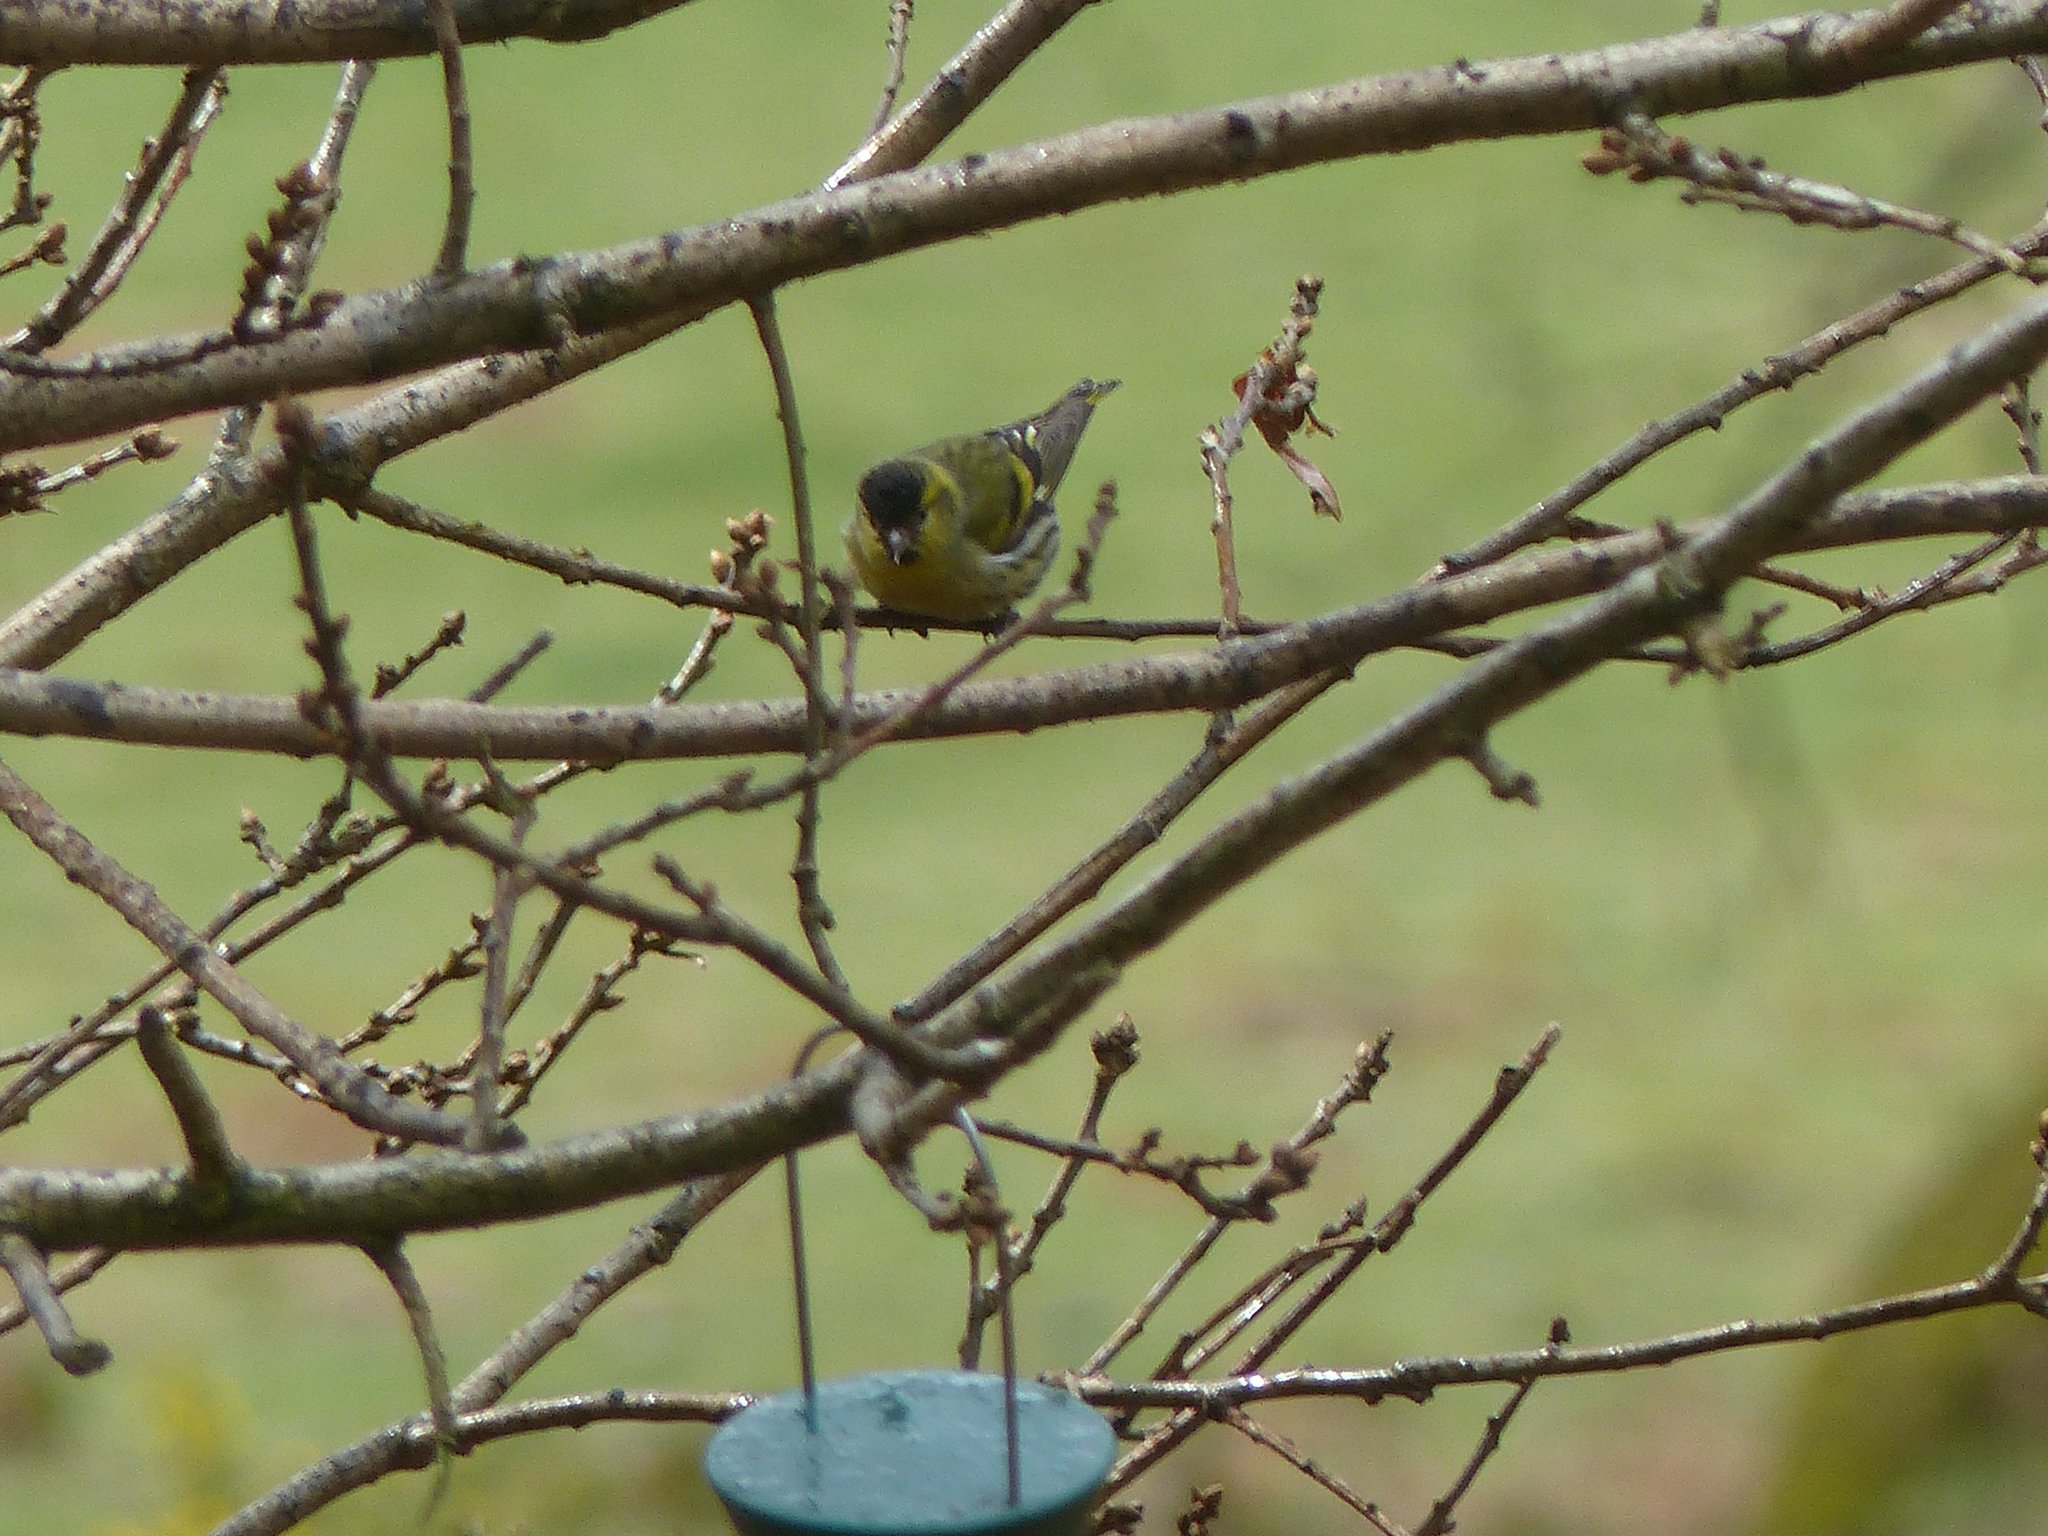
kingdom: Animalia
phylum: Chordata
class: Aves
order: Passeriformes
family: Fringillidae
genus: Spinus
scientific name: Spinus spinus
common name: Eurasian siskin
